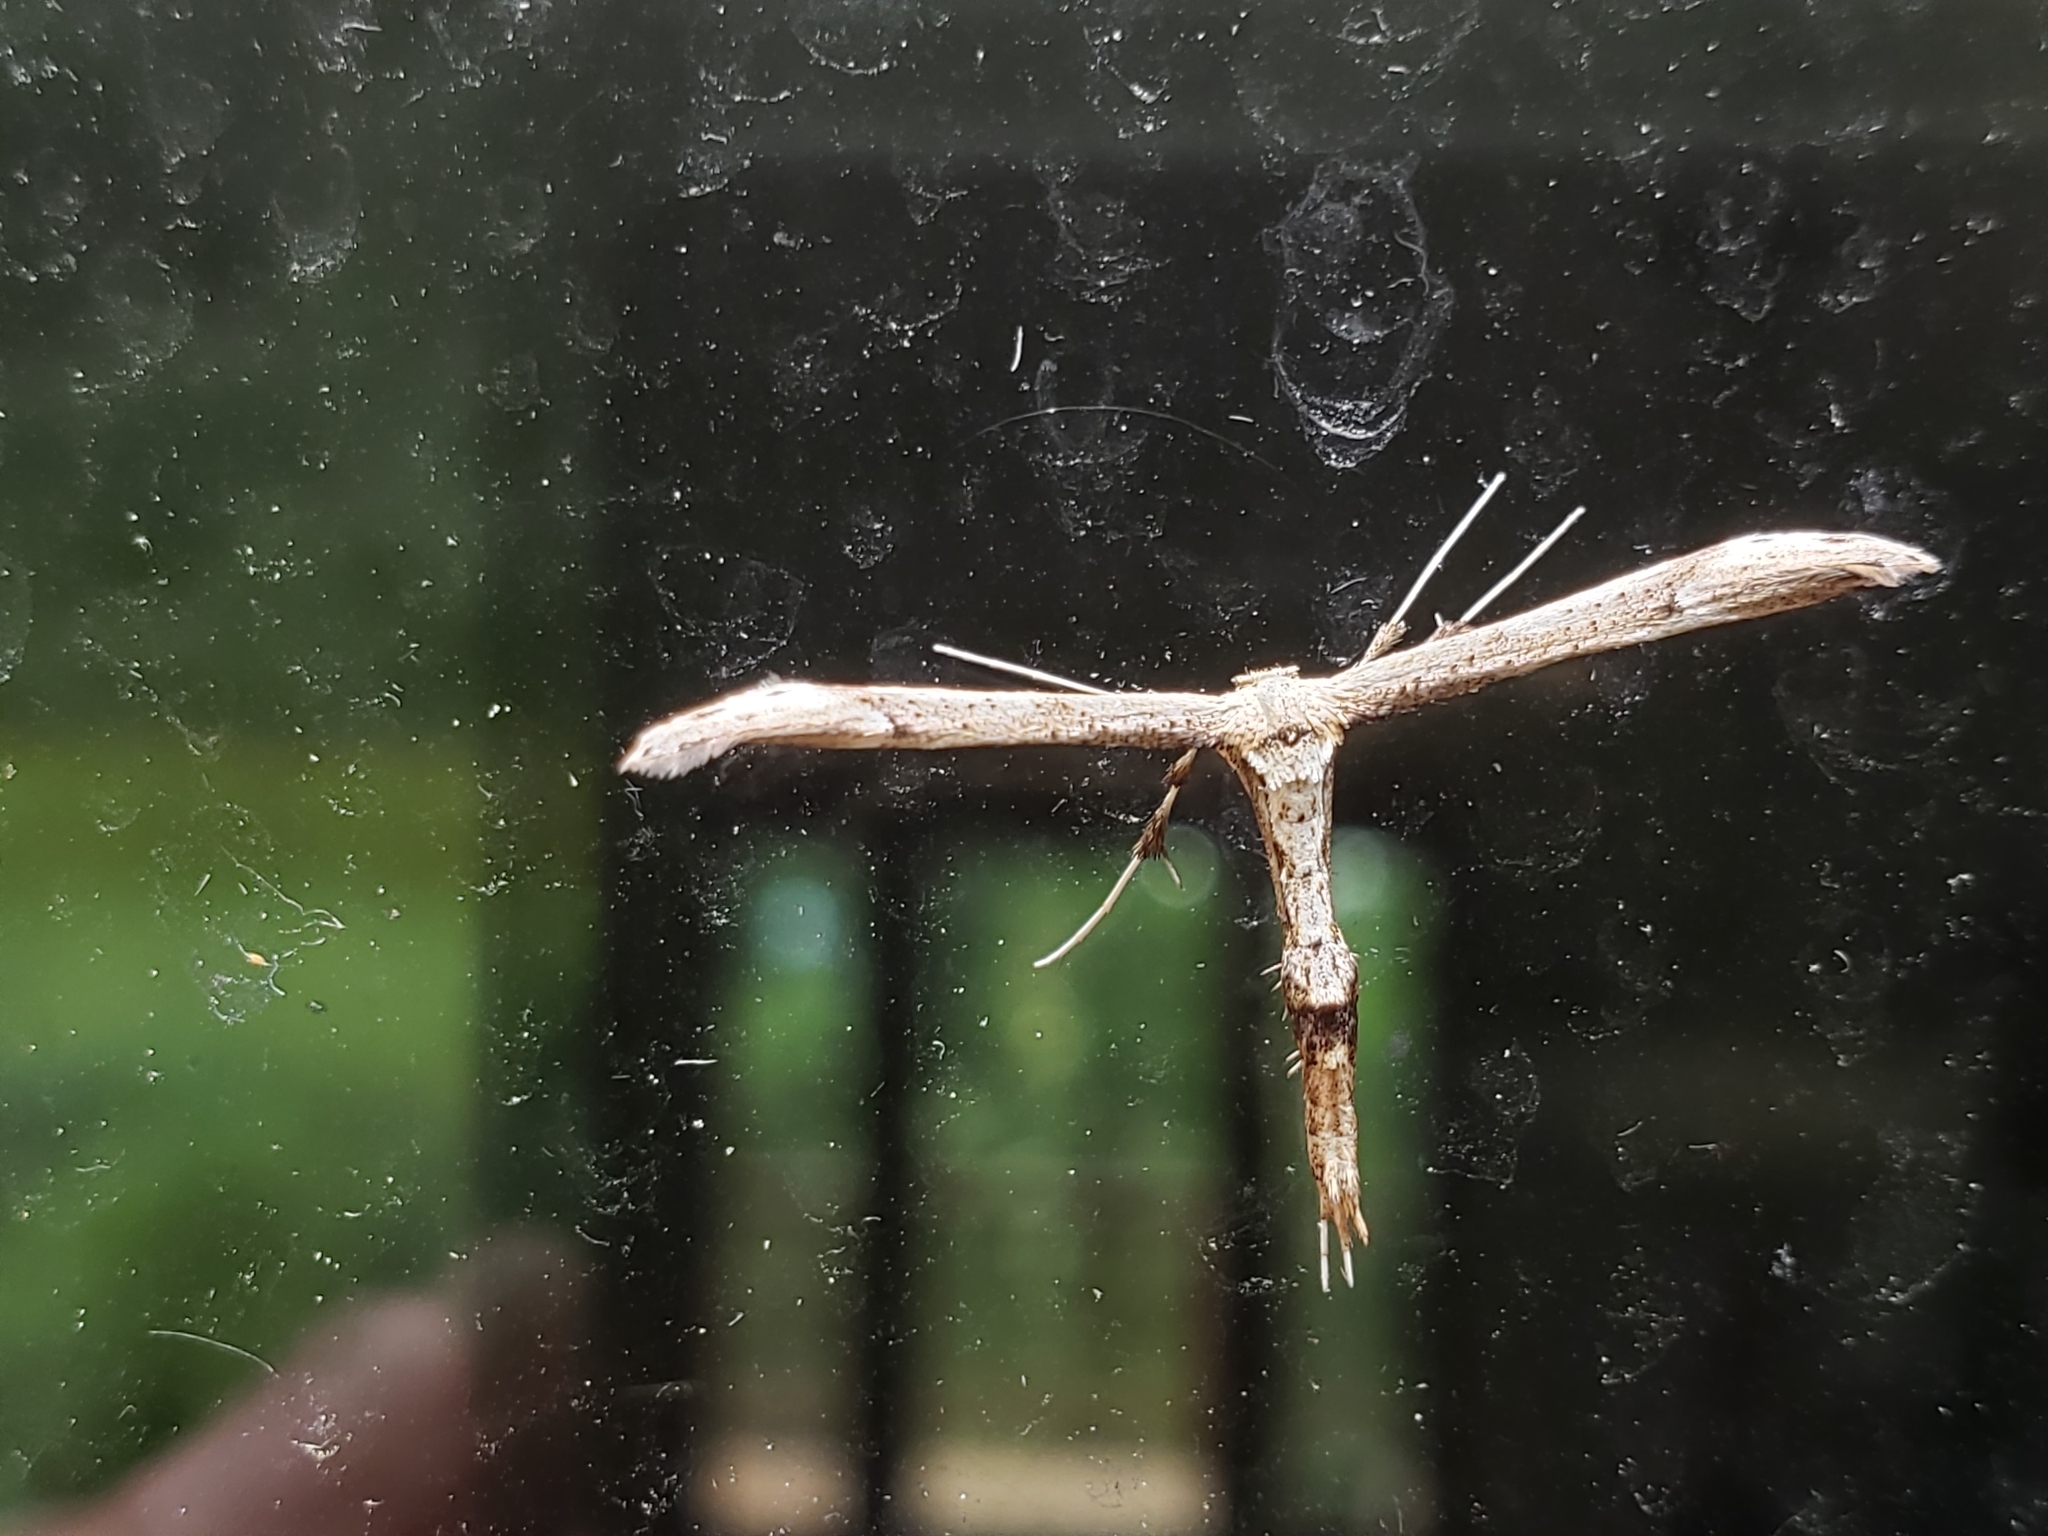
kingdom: Animalia
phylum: Arthropoda
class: Insecta
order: Lepidoptera
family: Pterophoridae
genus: Oidaematophorus
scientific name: Oidaematophorus eupatorii
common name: Eupatorium plume moth
